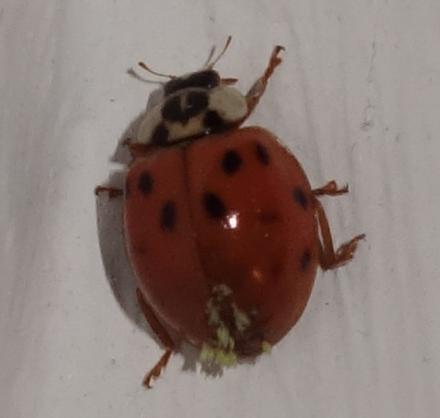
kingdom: Animalia
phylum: Arthropoda
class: Insecta
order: Coleoptera
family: Coccinellidae
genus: Harmonia
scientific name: Harmonia axyridis
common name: Harlequin ladybird
